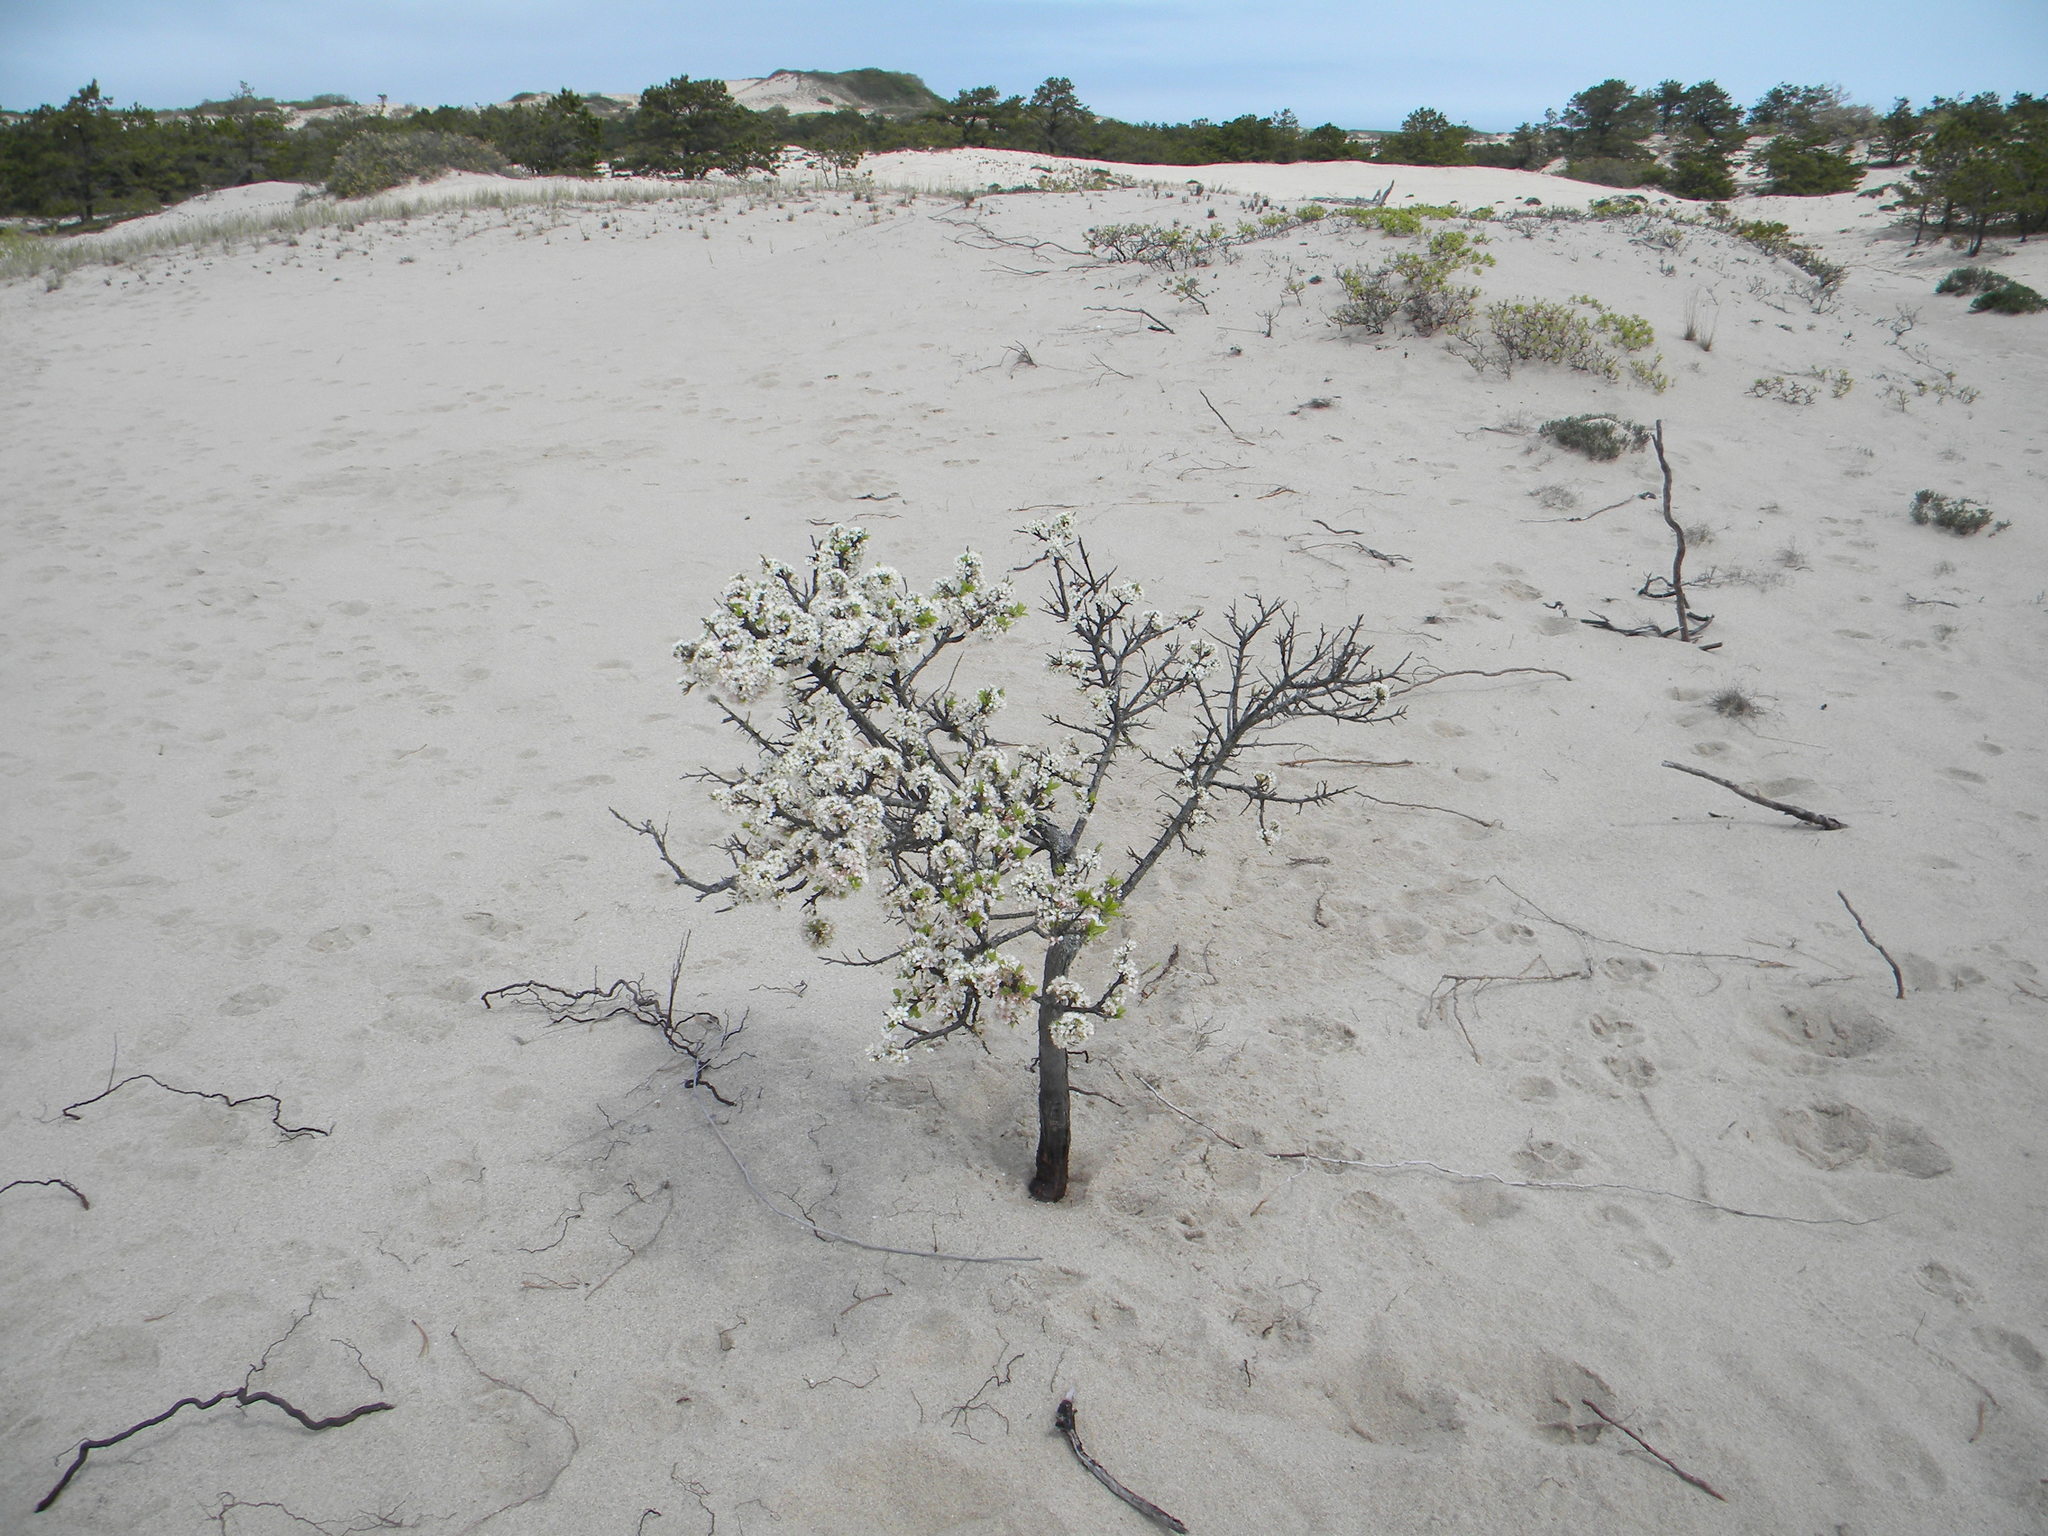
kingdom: Plantae
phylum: Tracheophyta
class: Magnoliopsida
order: Rosales
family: Rosaceae
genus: Prunus
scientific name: Prunus maritima
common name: Beach plum
